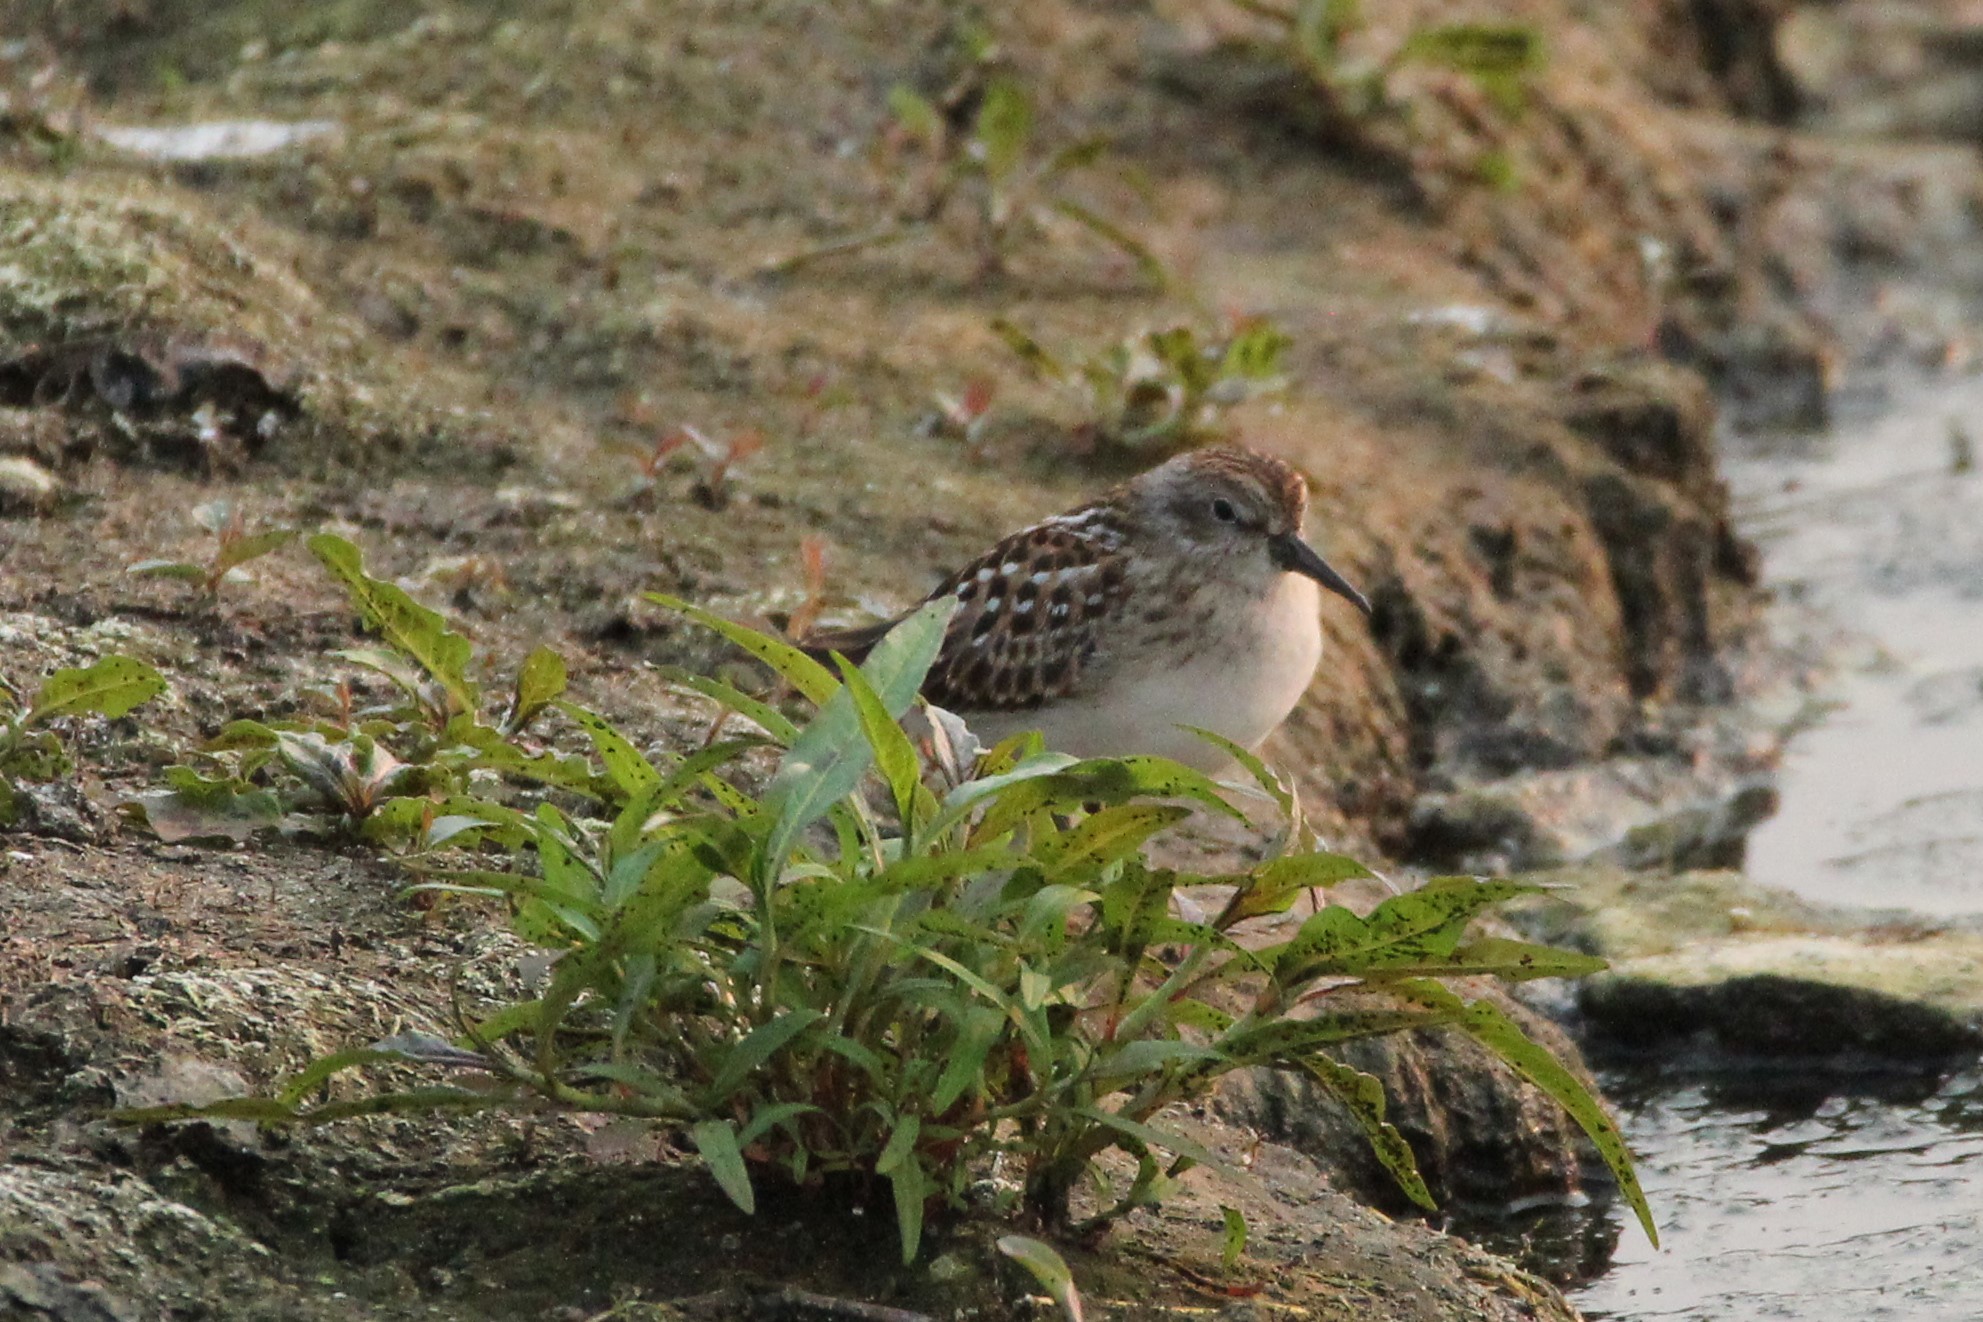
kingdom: Animalia
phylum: Chordata
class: Aves
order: Charadriiformes
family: Scolopacidae
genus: Calidris
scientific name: Calidris minutilla
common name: Least sandpiper
